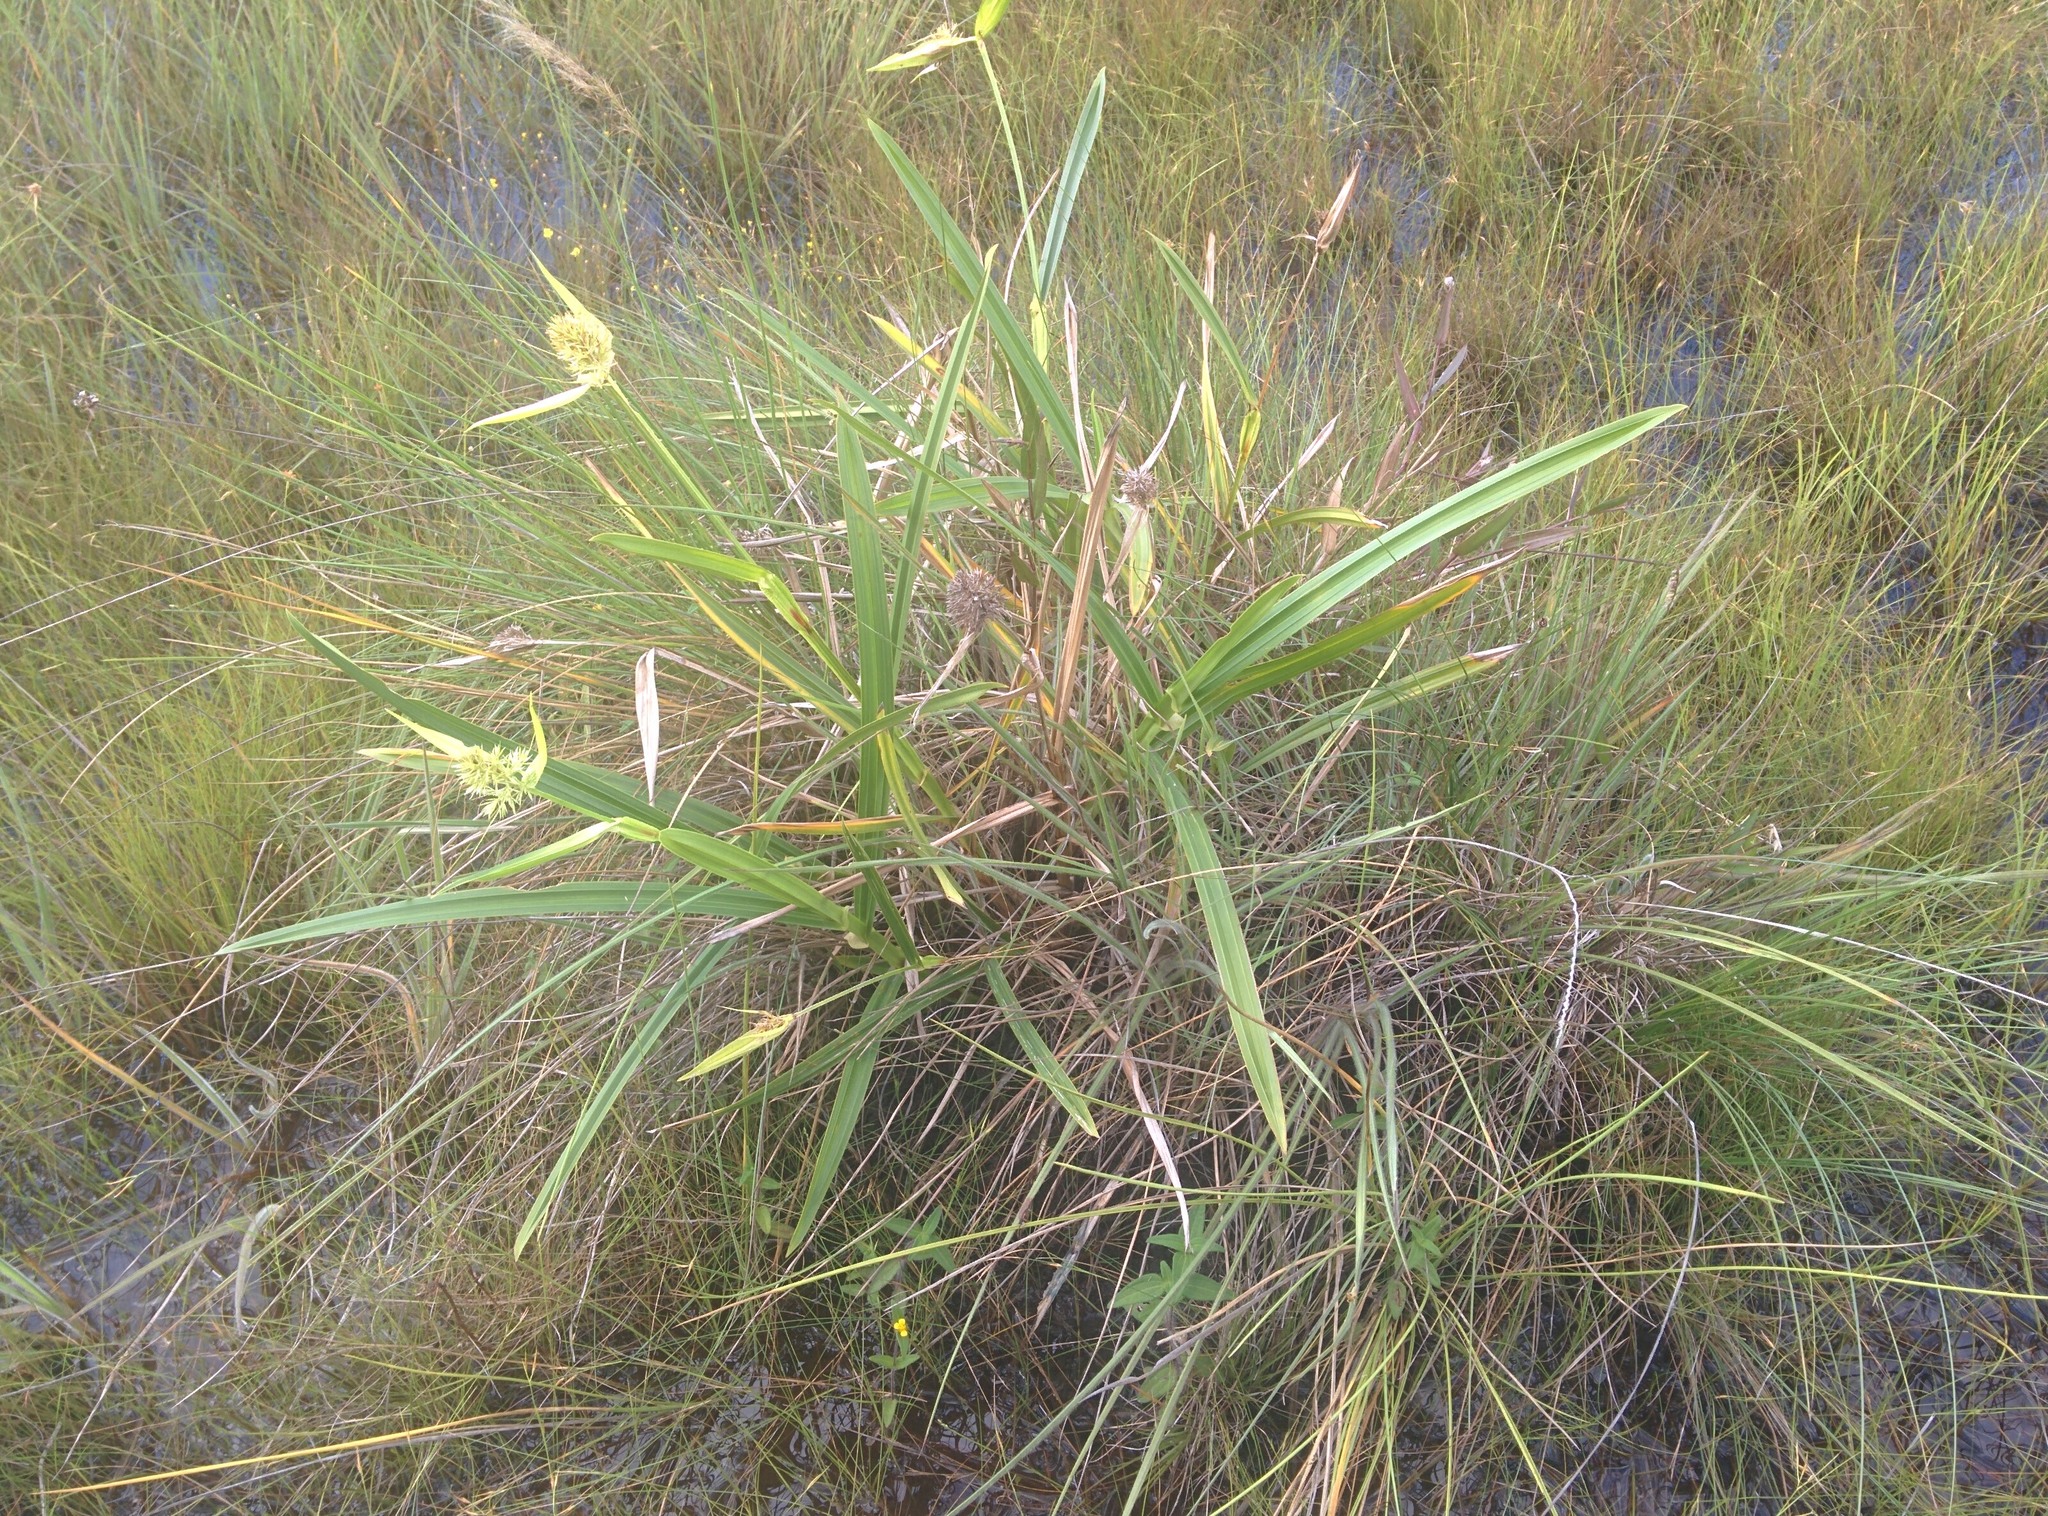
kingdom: Plantae
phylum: Tracheophyta
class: Liliopsida
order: Poales
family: Cyperaceae
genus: Scleria
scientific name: Scleria cyperina
